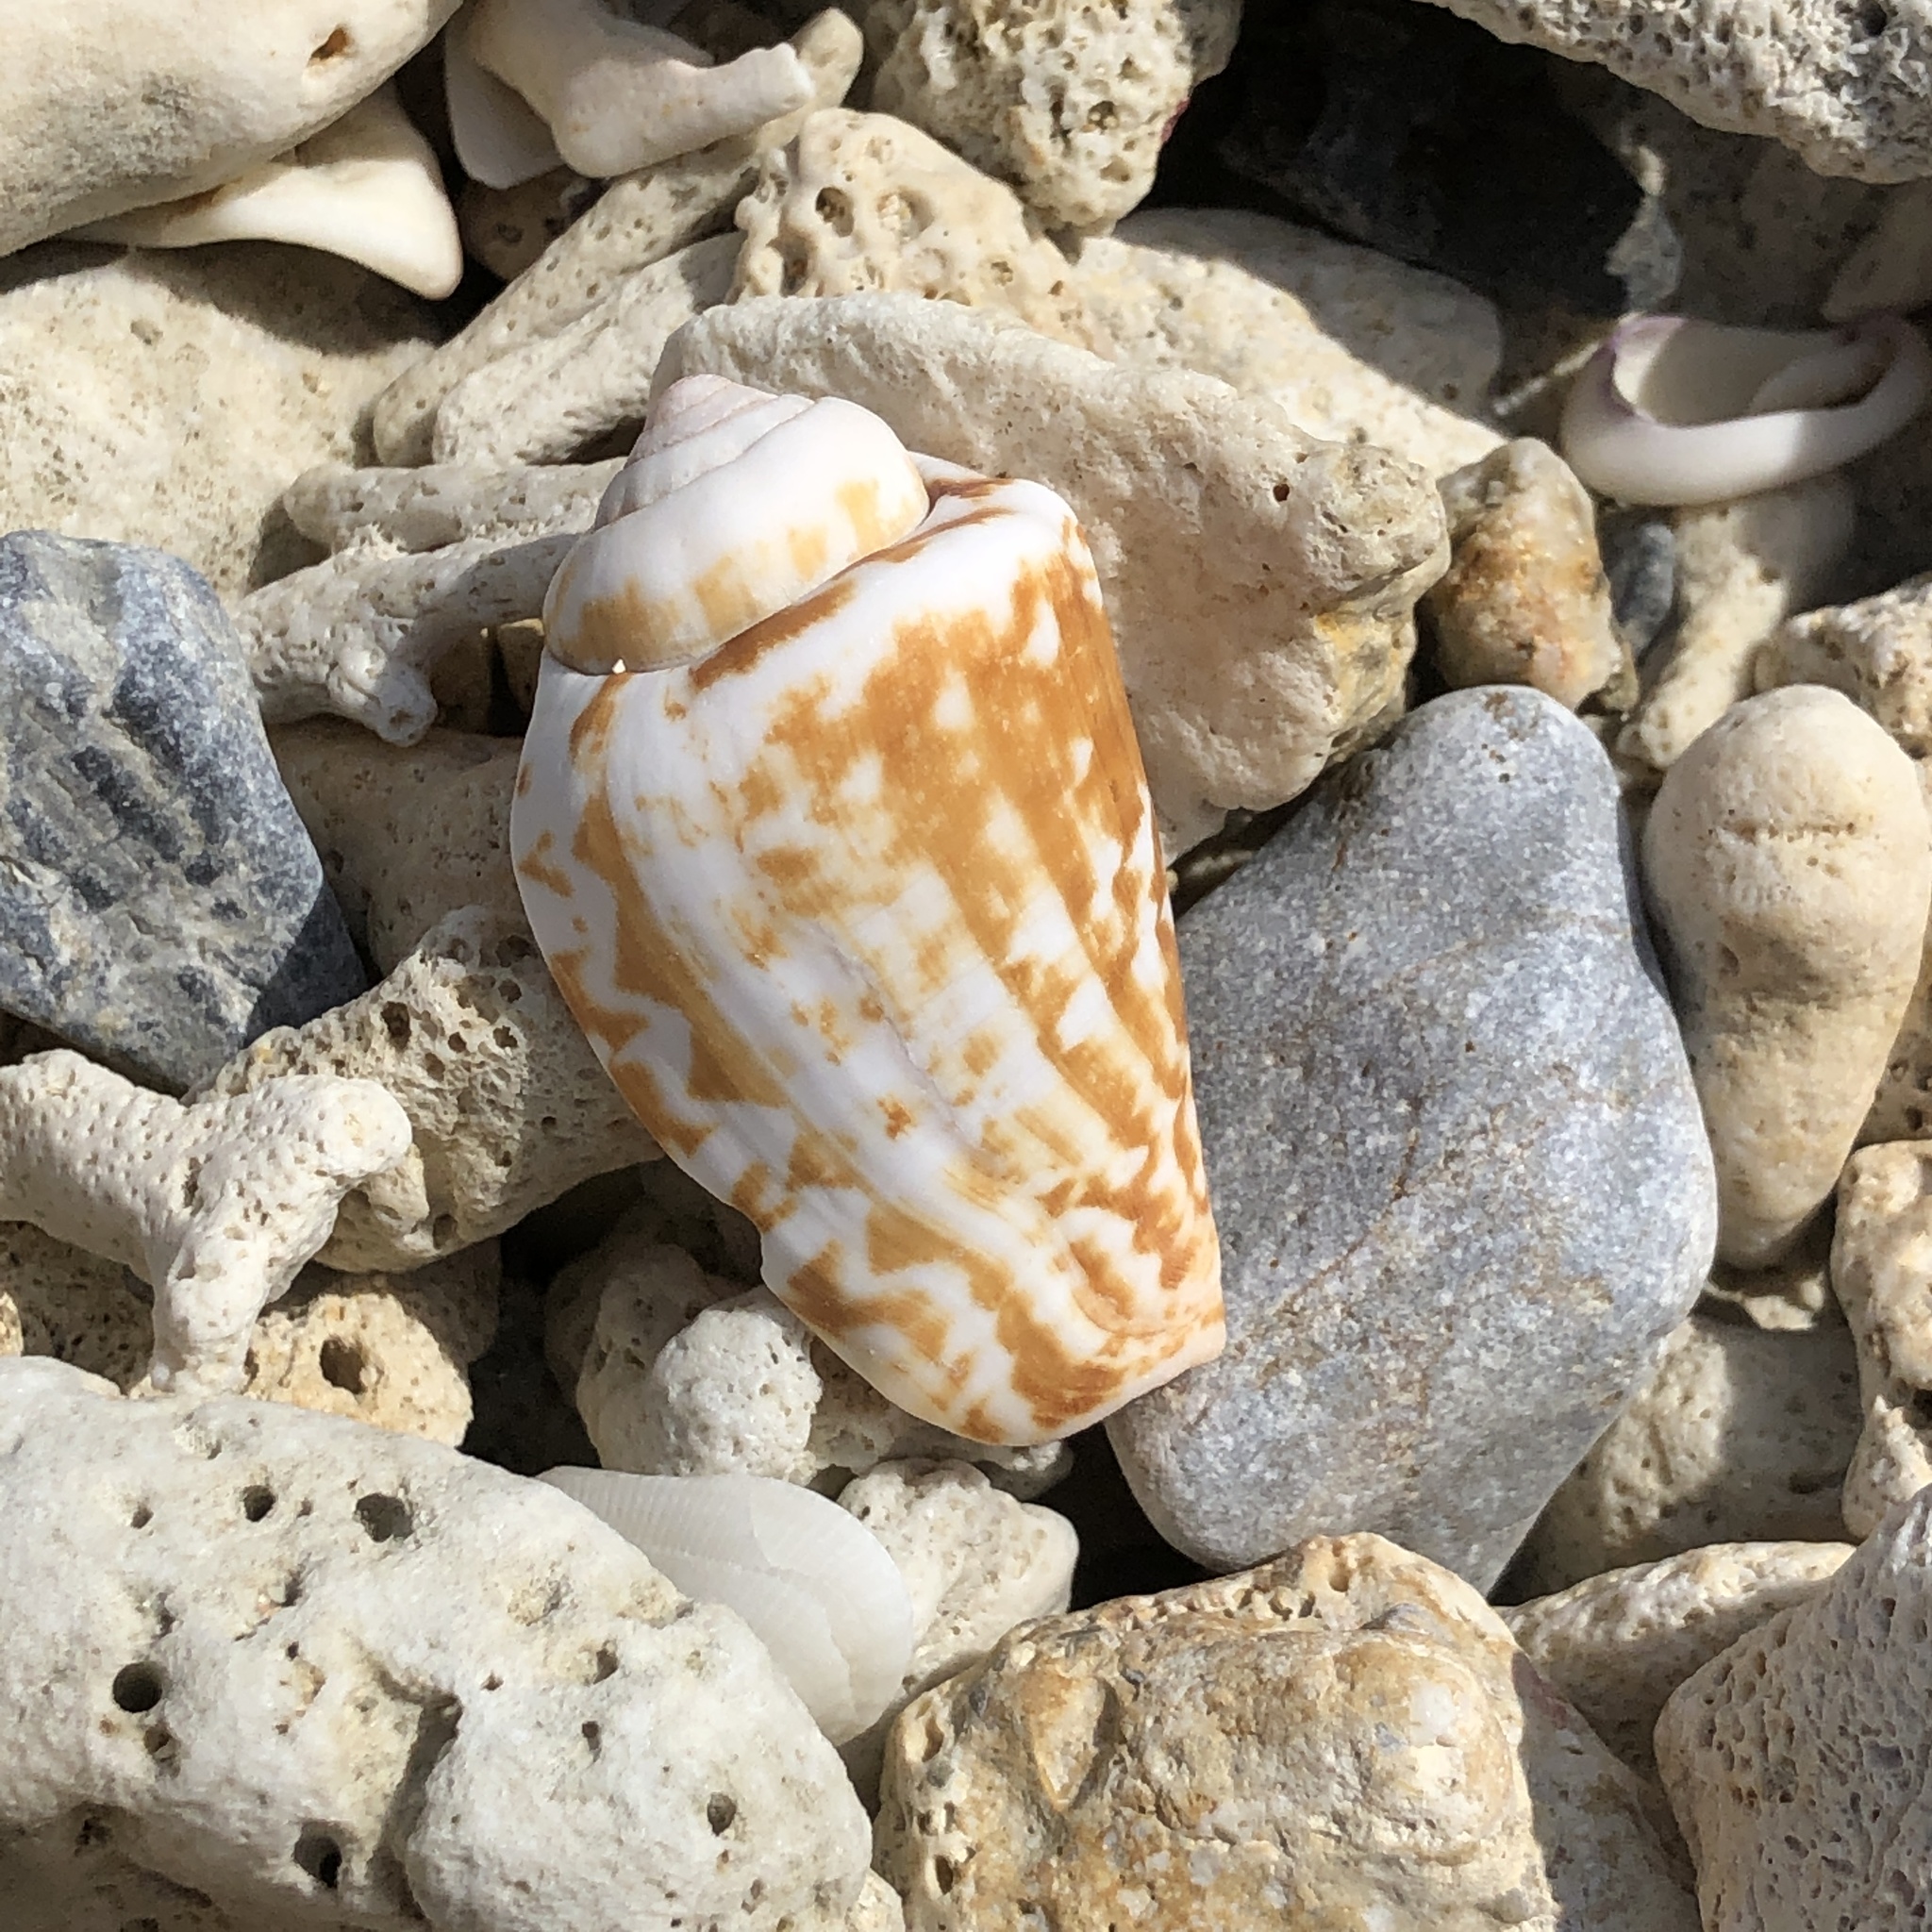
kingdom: Animalia
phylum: Mollusca
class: Gastropoda
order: Littorinimorpha
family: Strombidae
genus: Conomurex
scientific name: Conomurex luhuanus
